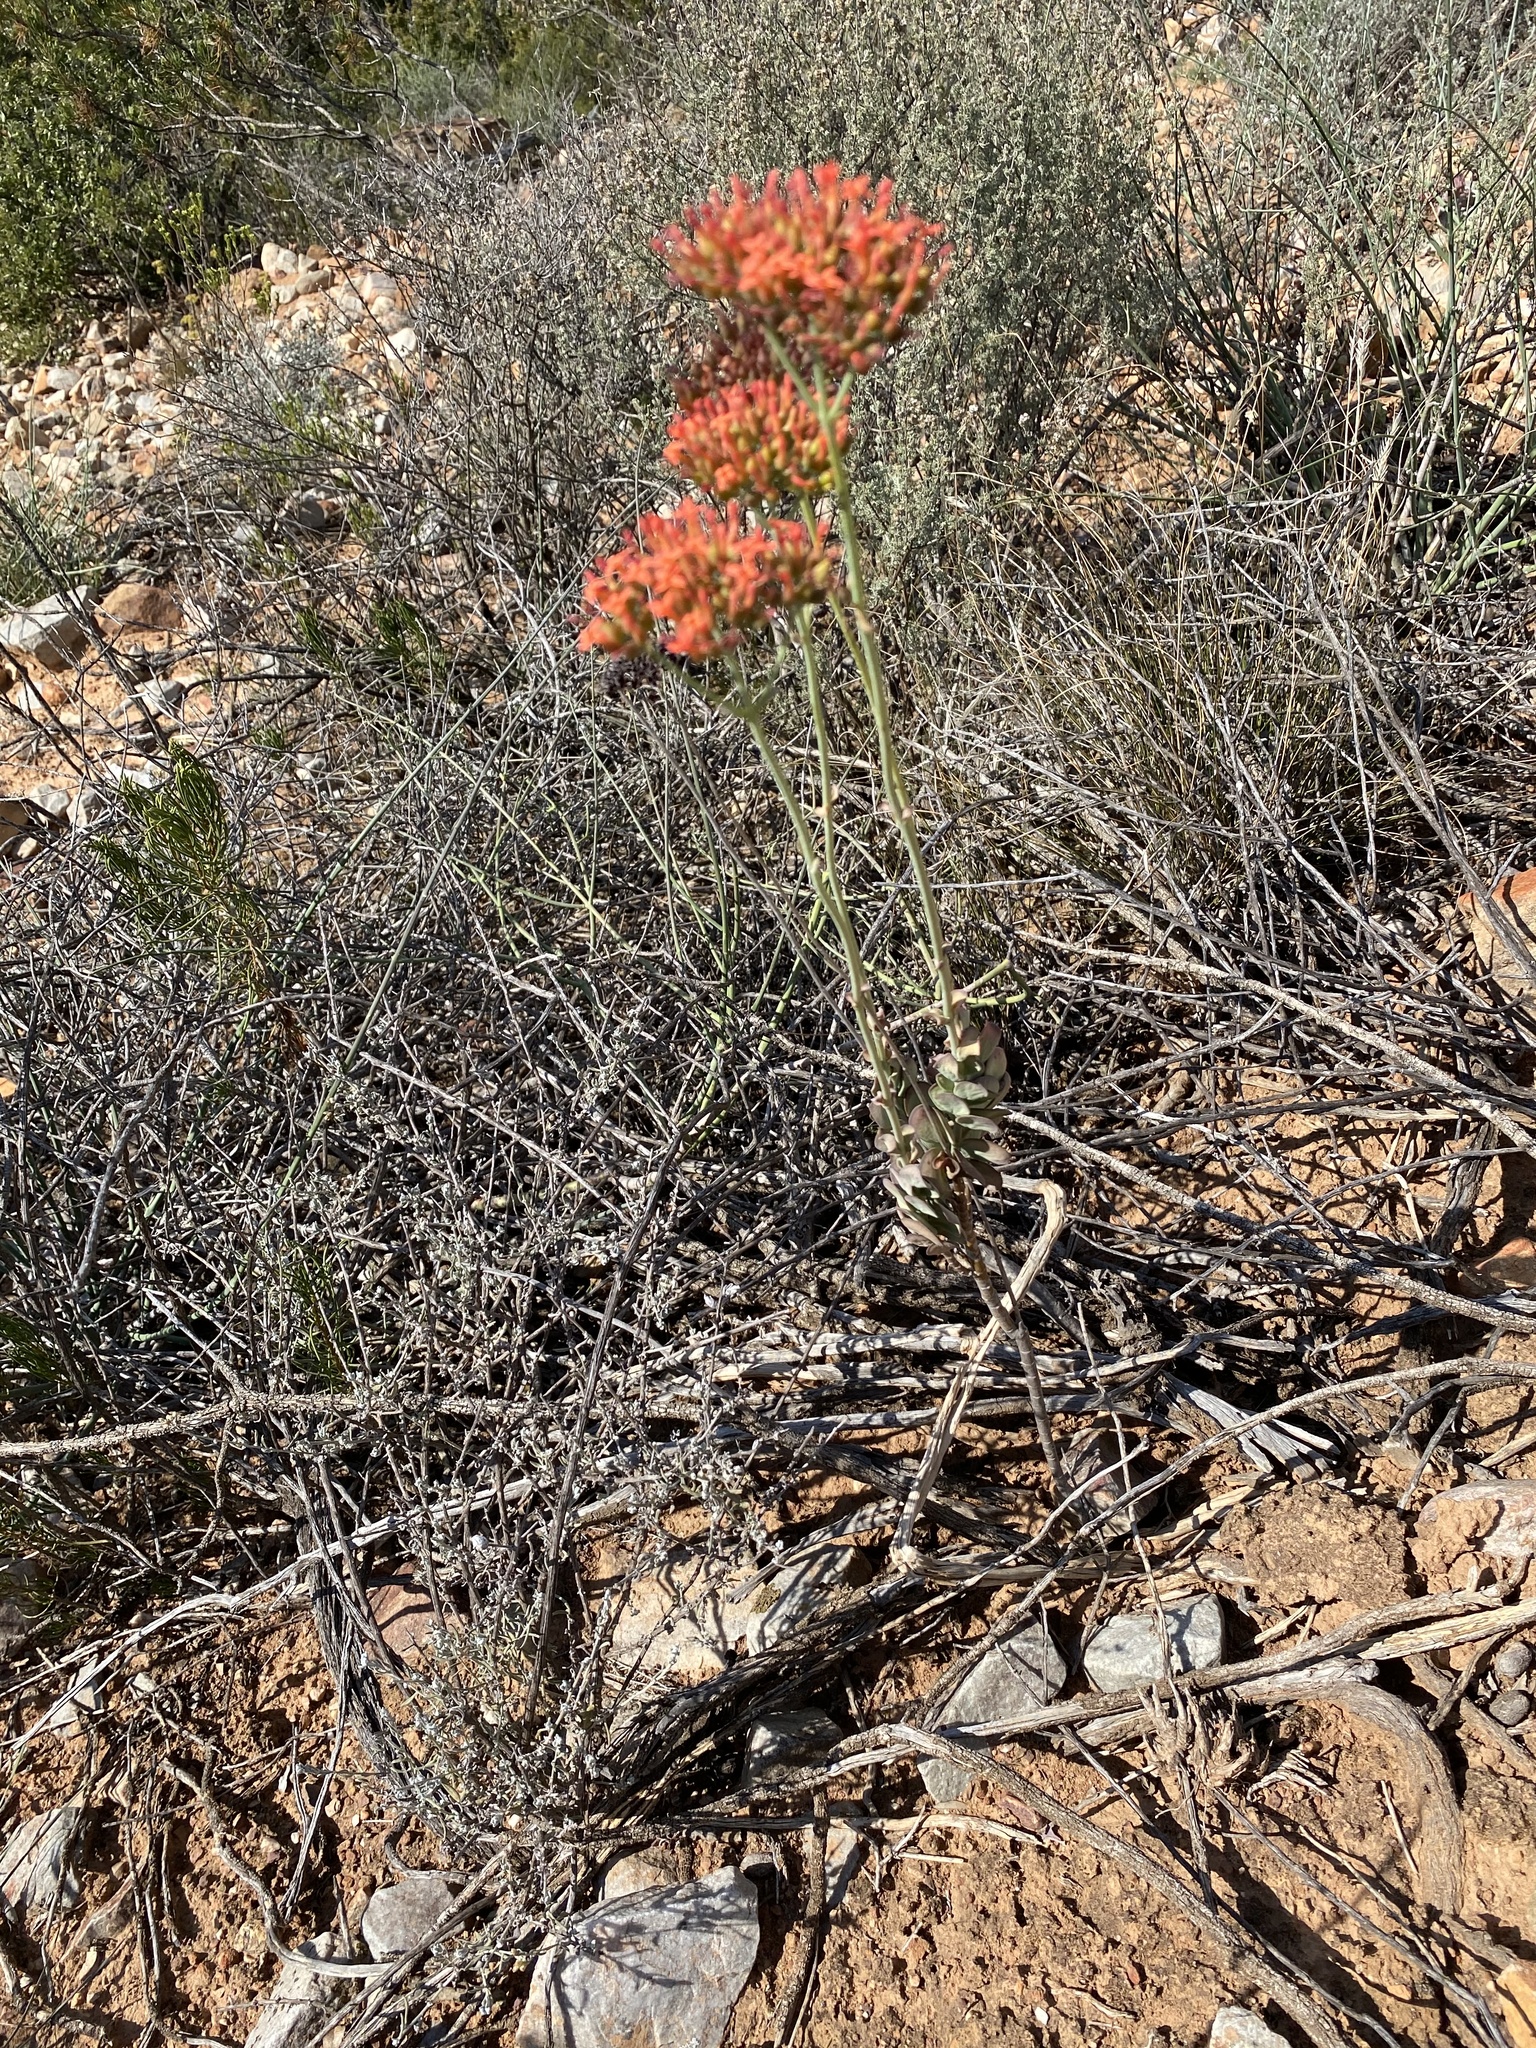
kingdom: Plantae
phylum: Tracheophyta
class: Magnoliopsida
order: Saxifragales
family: Crassulaceae
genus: Kalanchoe
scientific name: Kalanchoe rotundifolia
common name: Common kalanchoe
